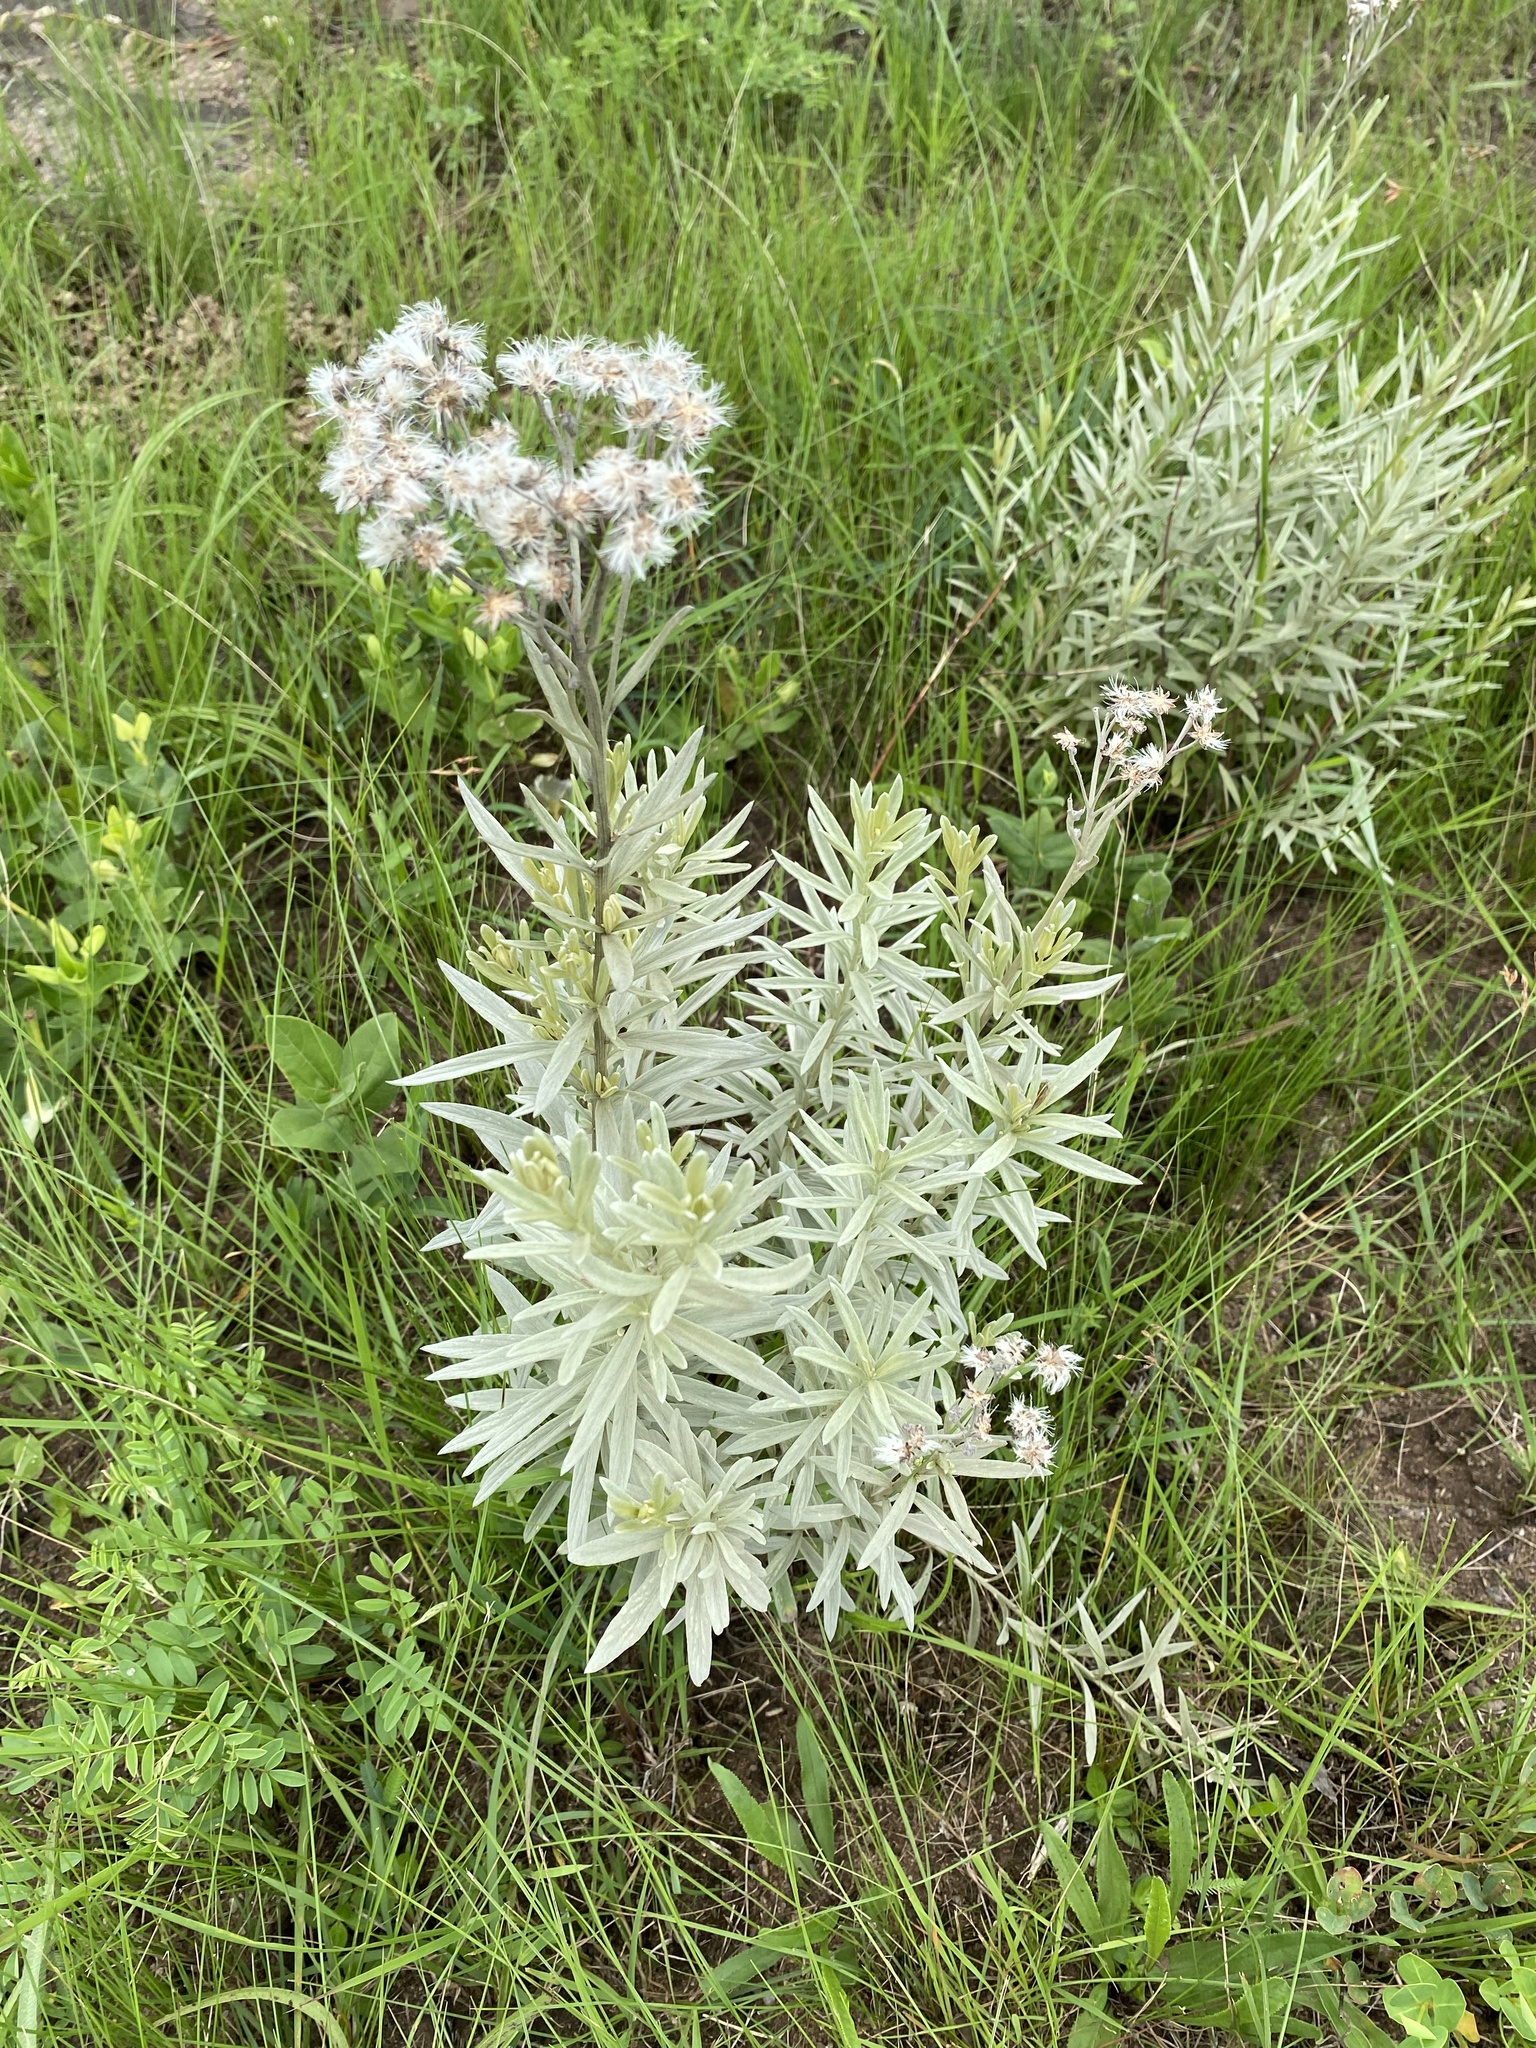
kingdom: Plantae
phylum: Tracheophyta
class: Magnoliopsida
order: Asterales
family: Asteraceae
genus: Hilliardiella
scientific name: Hilliardiella aristata
